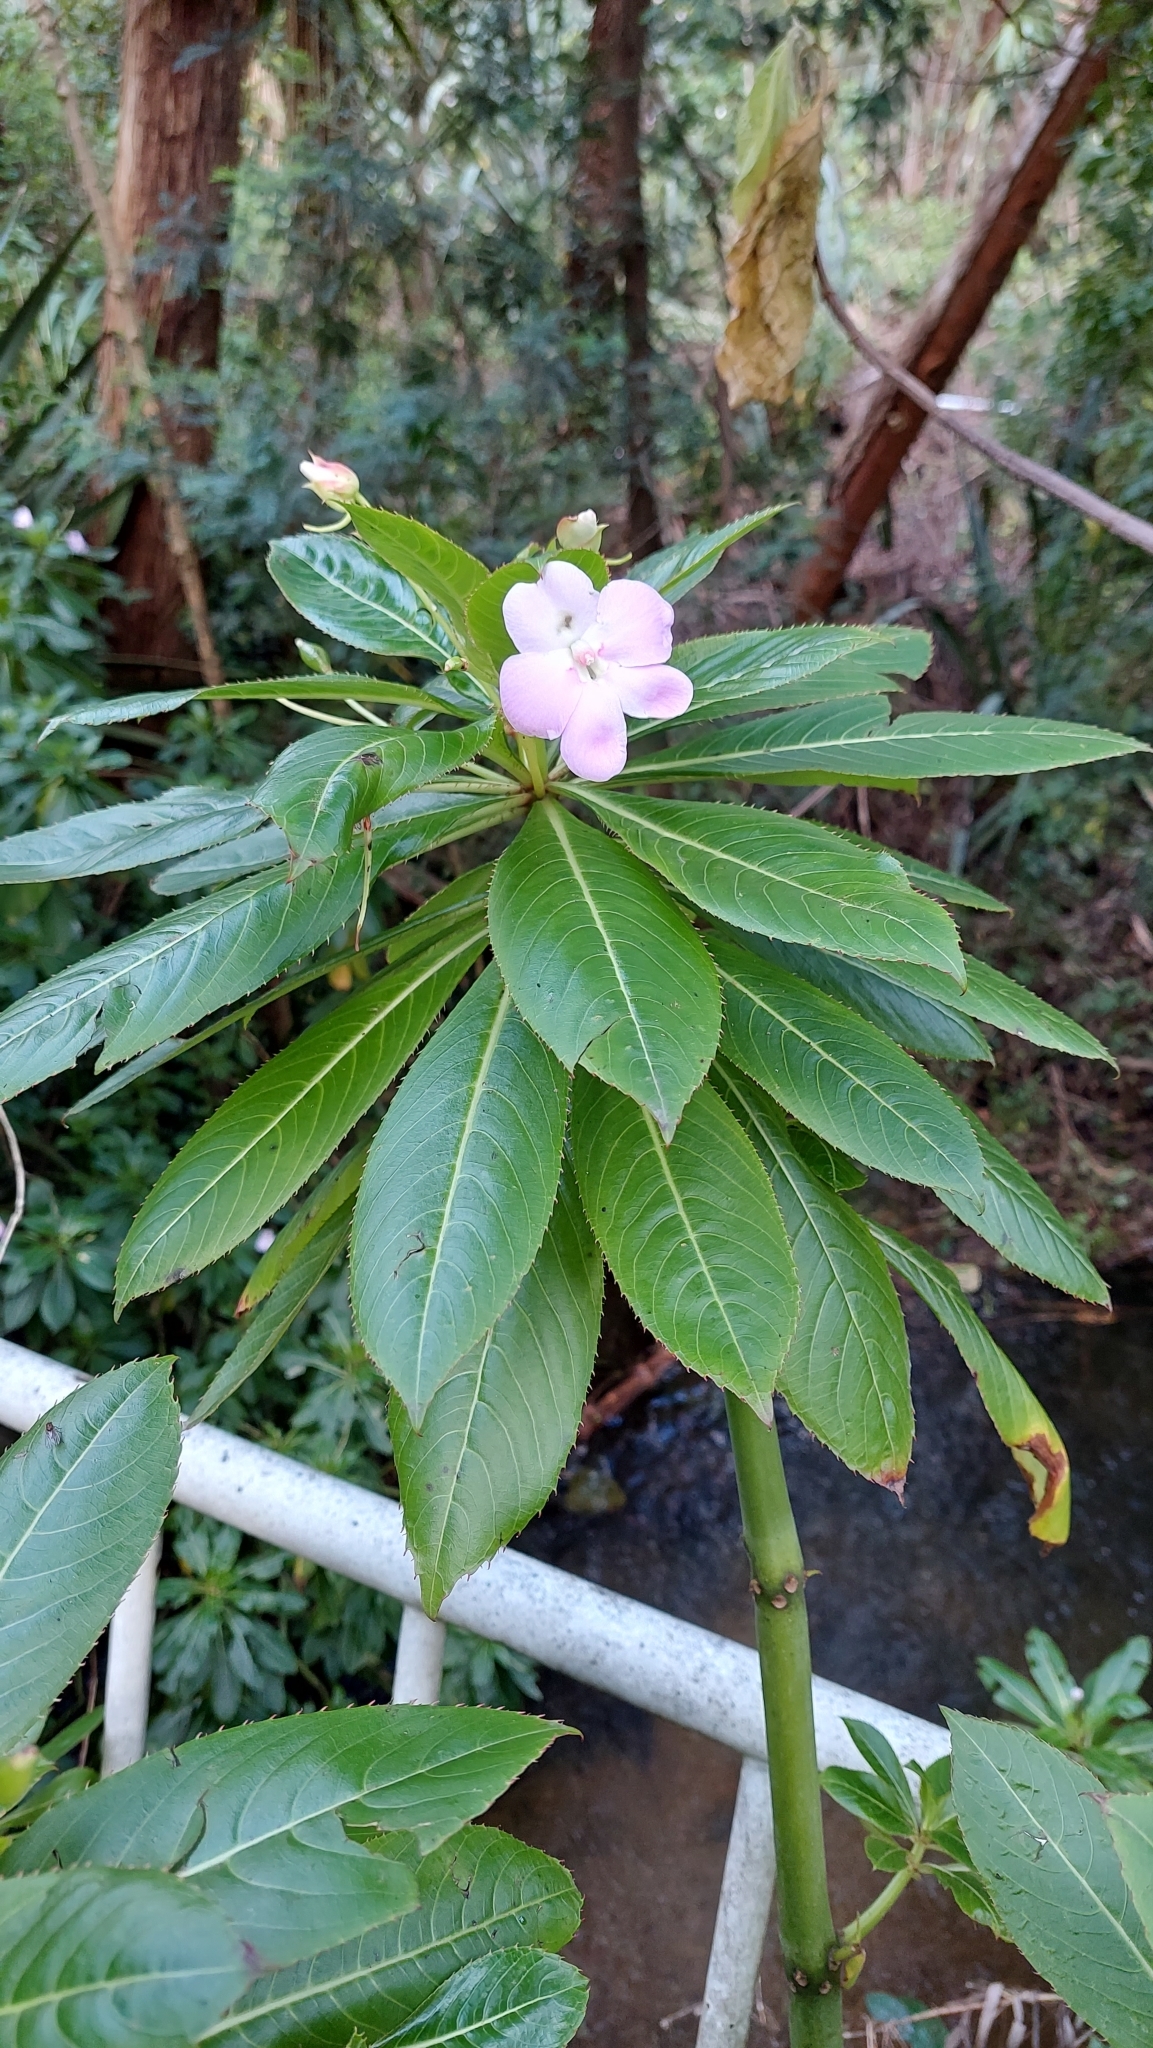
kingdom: Plantae
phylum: Tracheophyta
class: Magnoliopsida
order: Ericales
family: Balsaminaceae
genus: Impatiens
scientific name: Impatiens sodenii
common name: Oliver's touch-me-not
